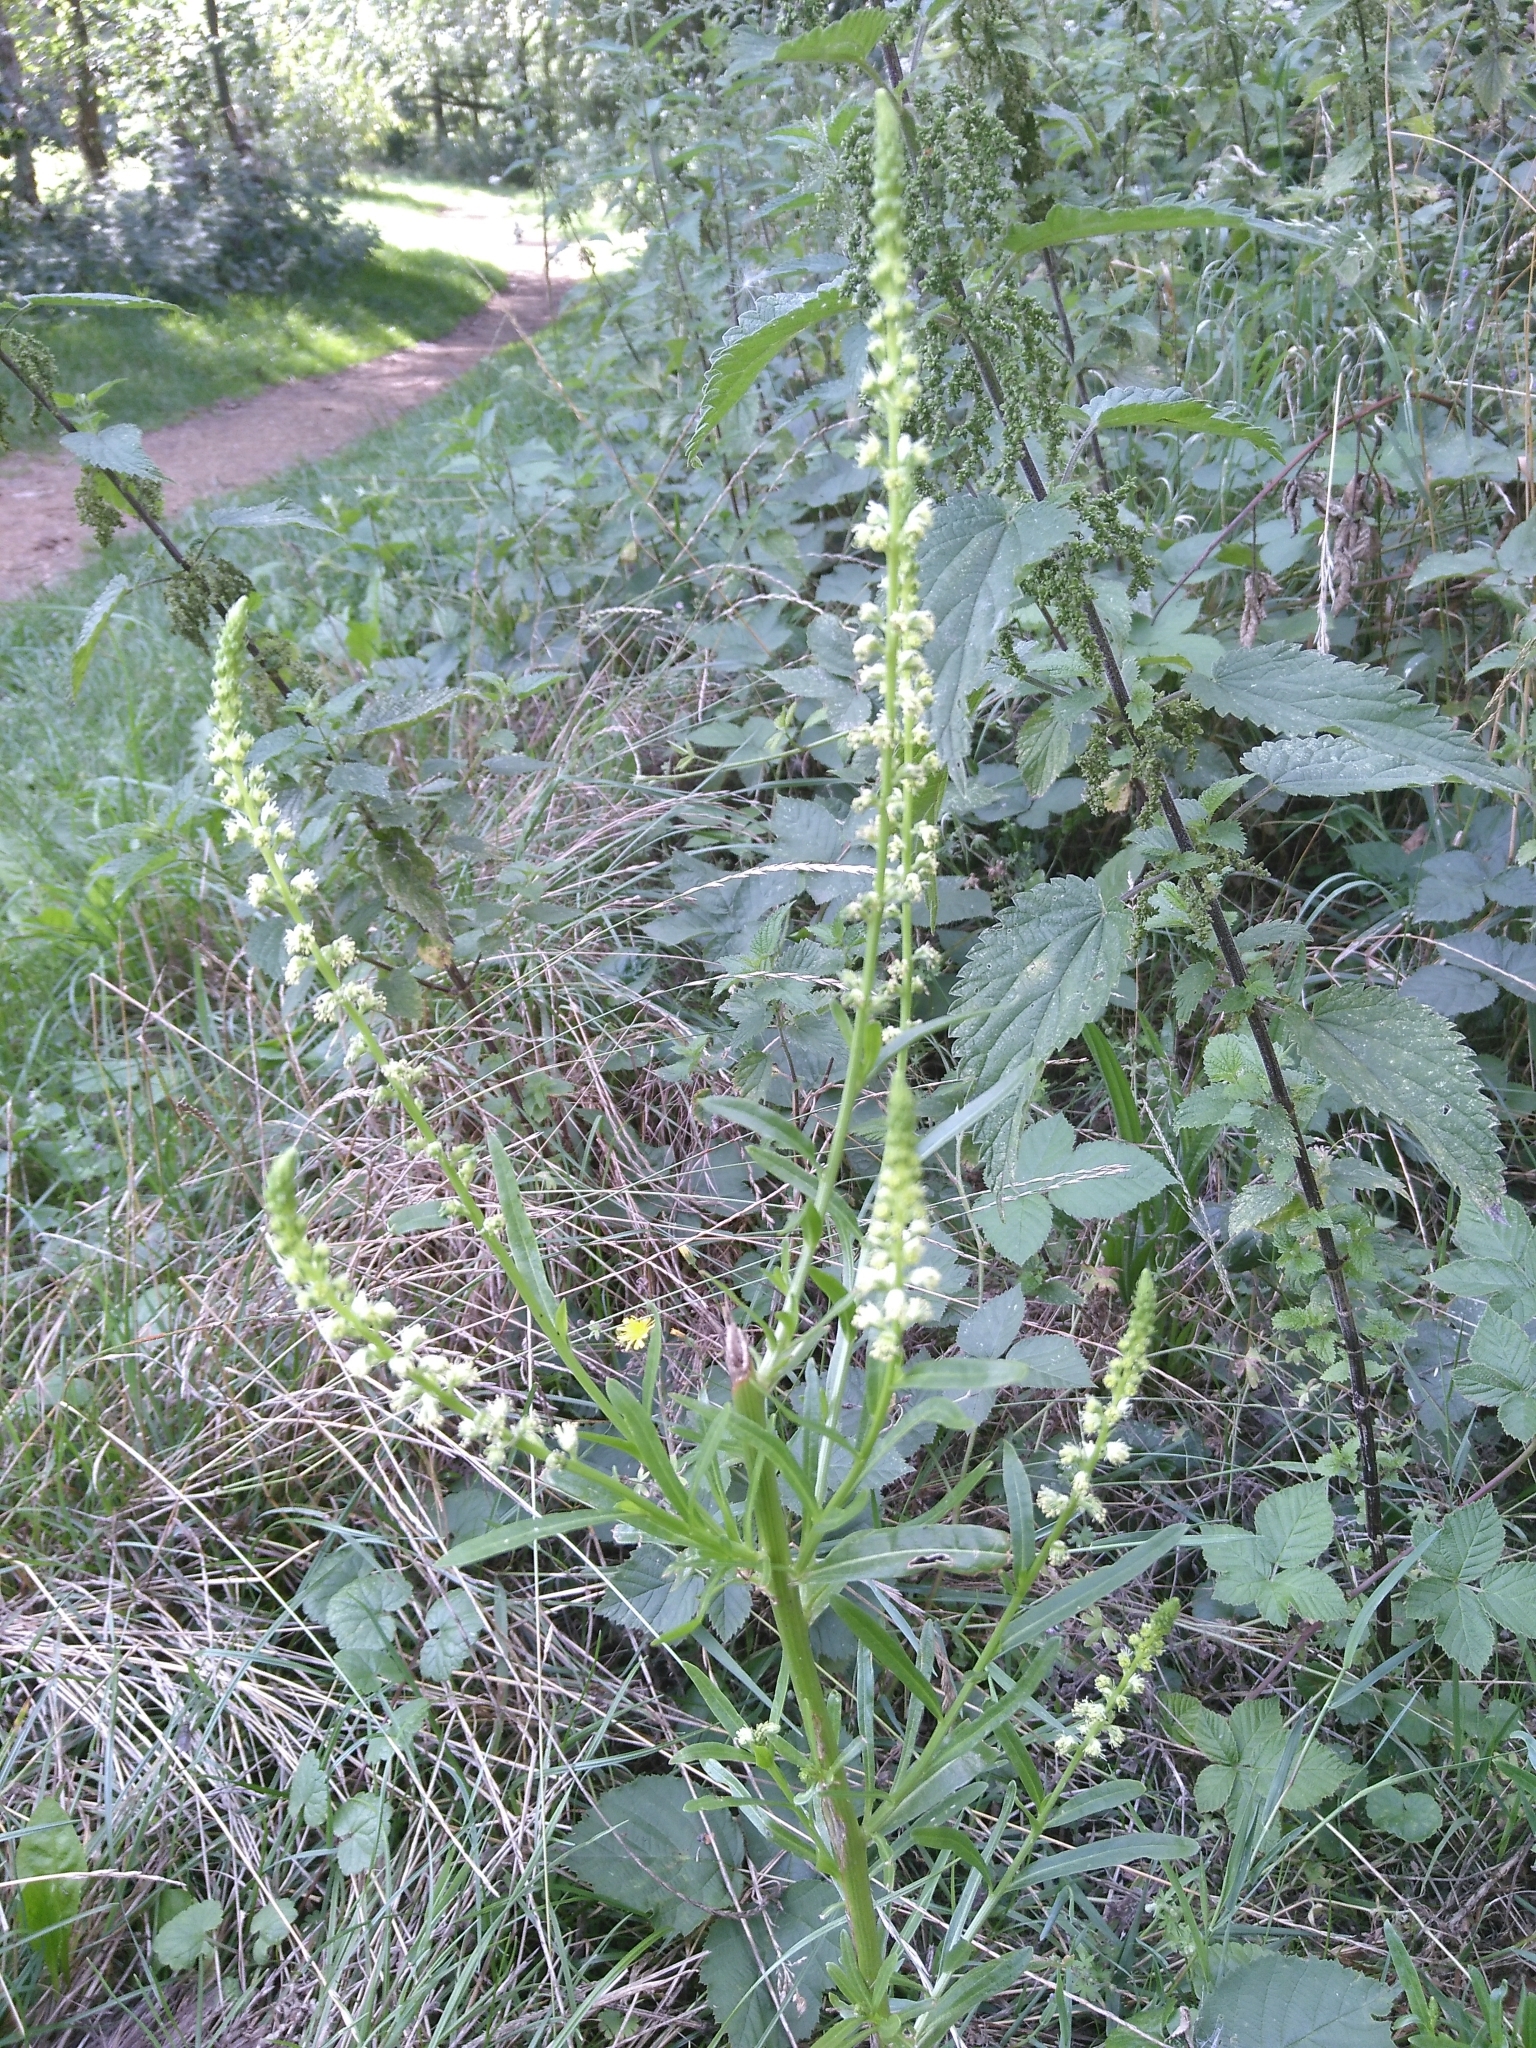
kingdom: Plantae
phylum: Tracheophyta
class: Magnoliopsida
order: Brassicales
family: Resedaceae
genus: Reseda
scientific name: Reseda luteola
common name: Weld
